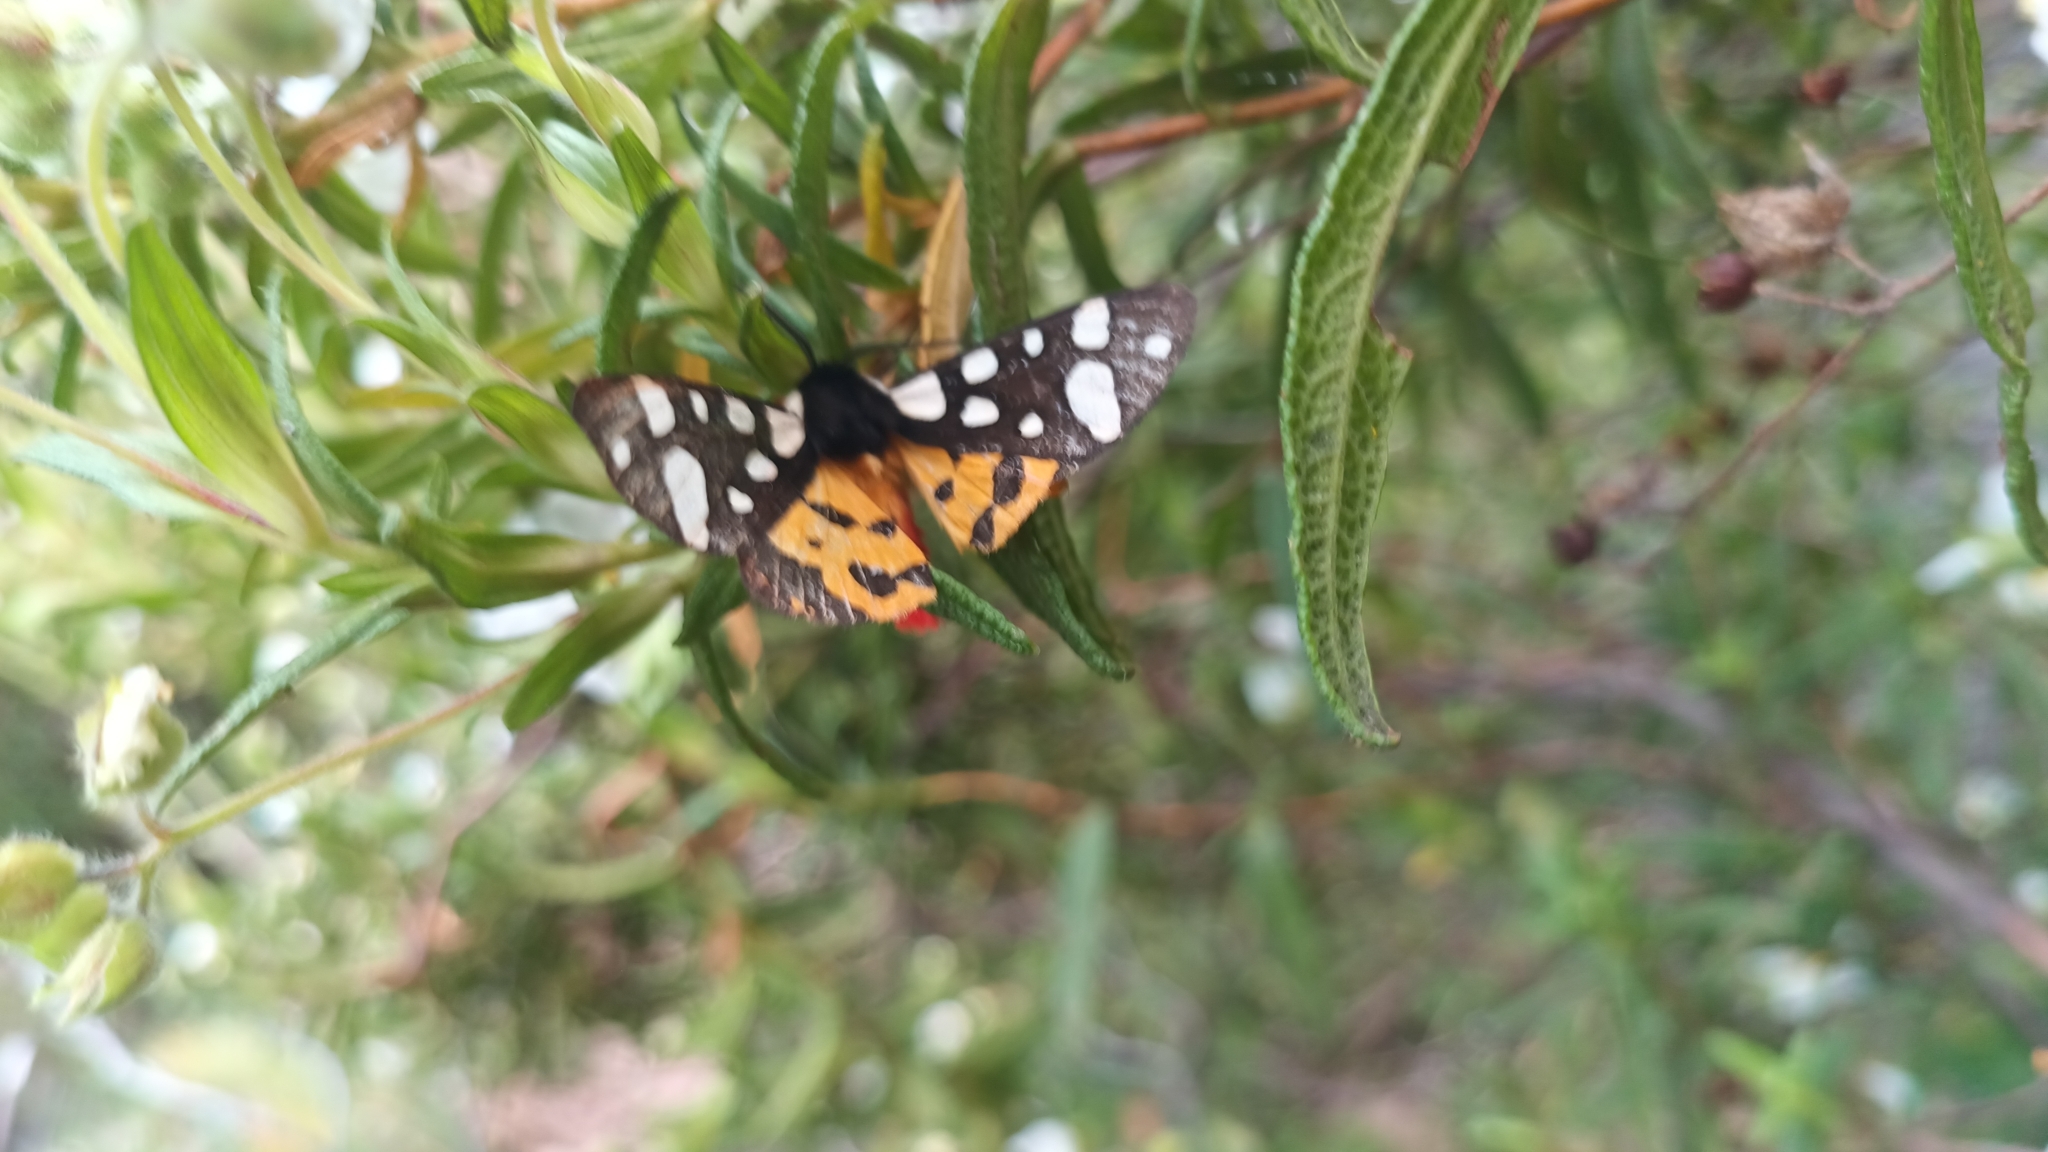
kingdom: Animalia
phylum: Arthropoda
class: Insecta
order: Lepidoptera
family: Erebidae
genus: Epicallia
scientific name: Epicallia villica
